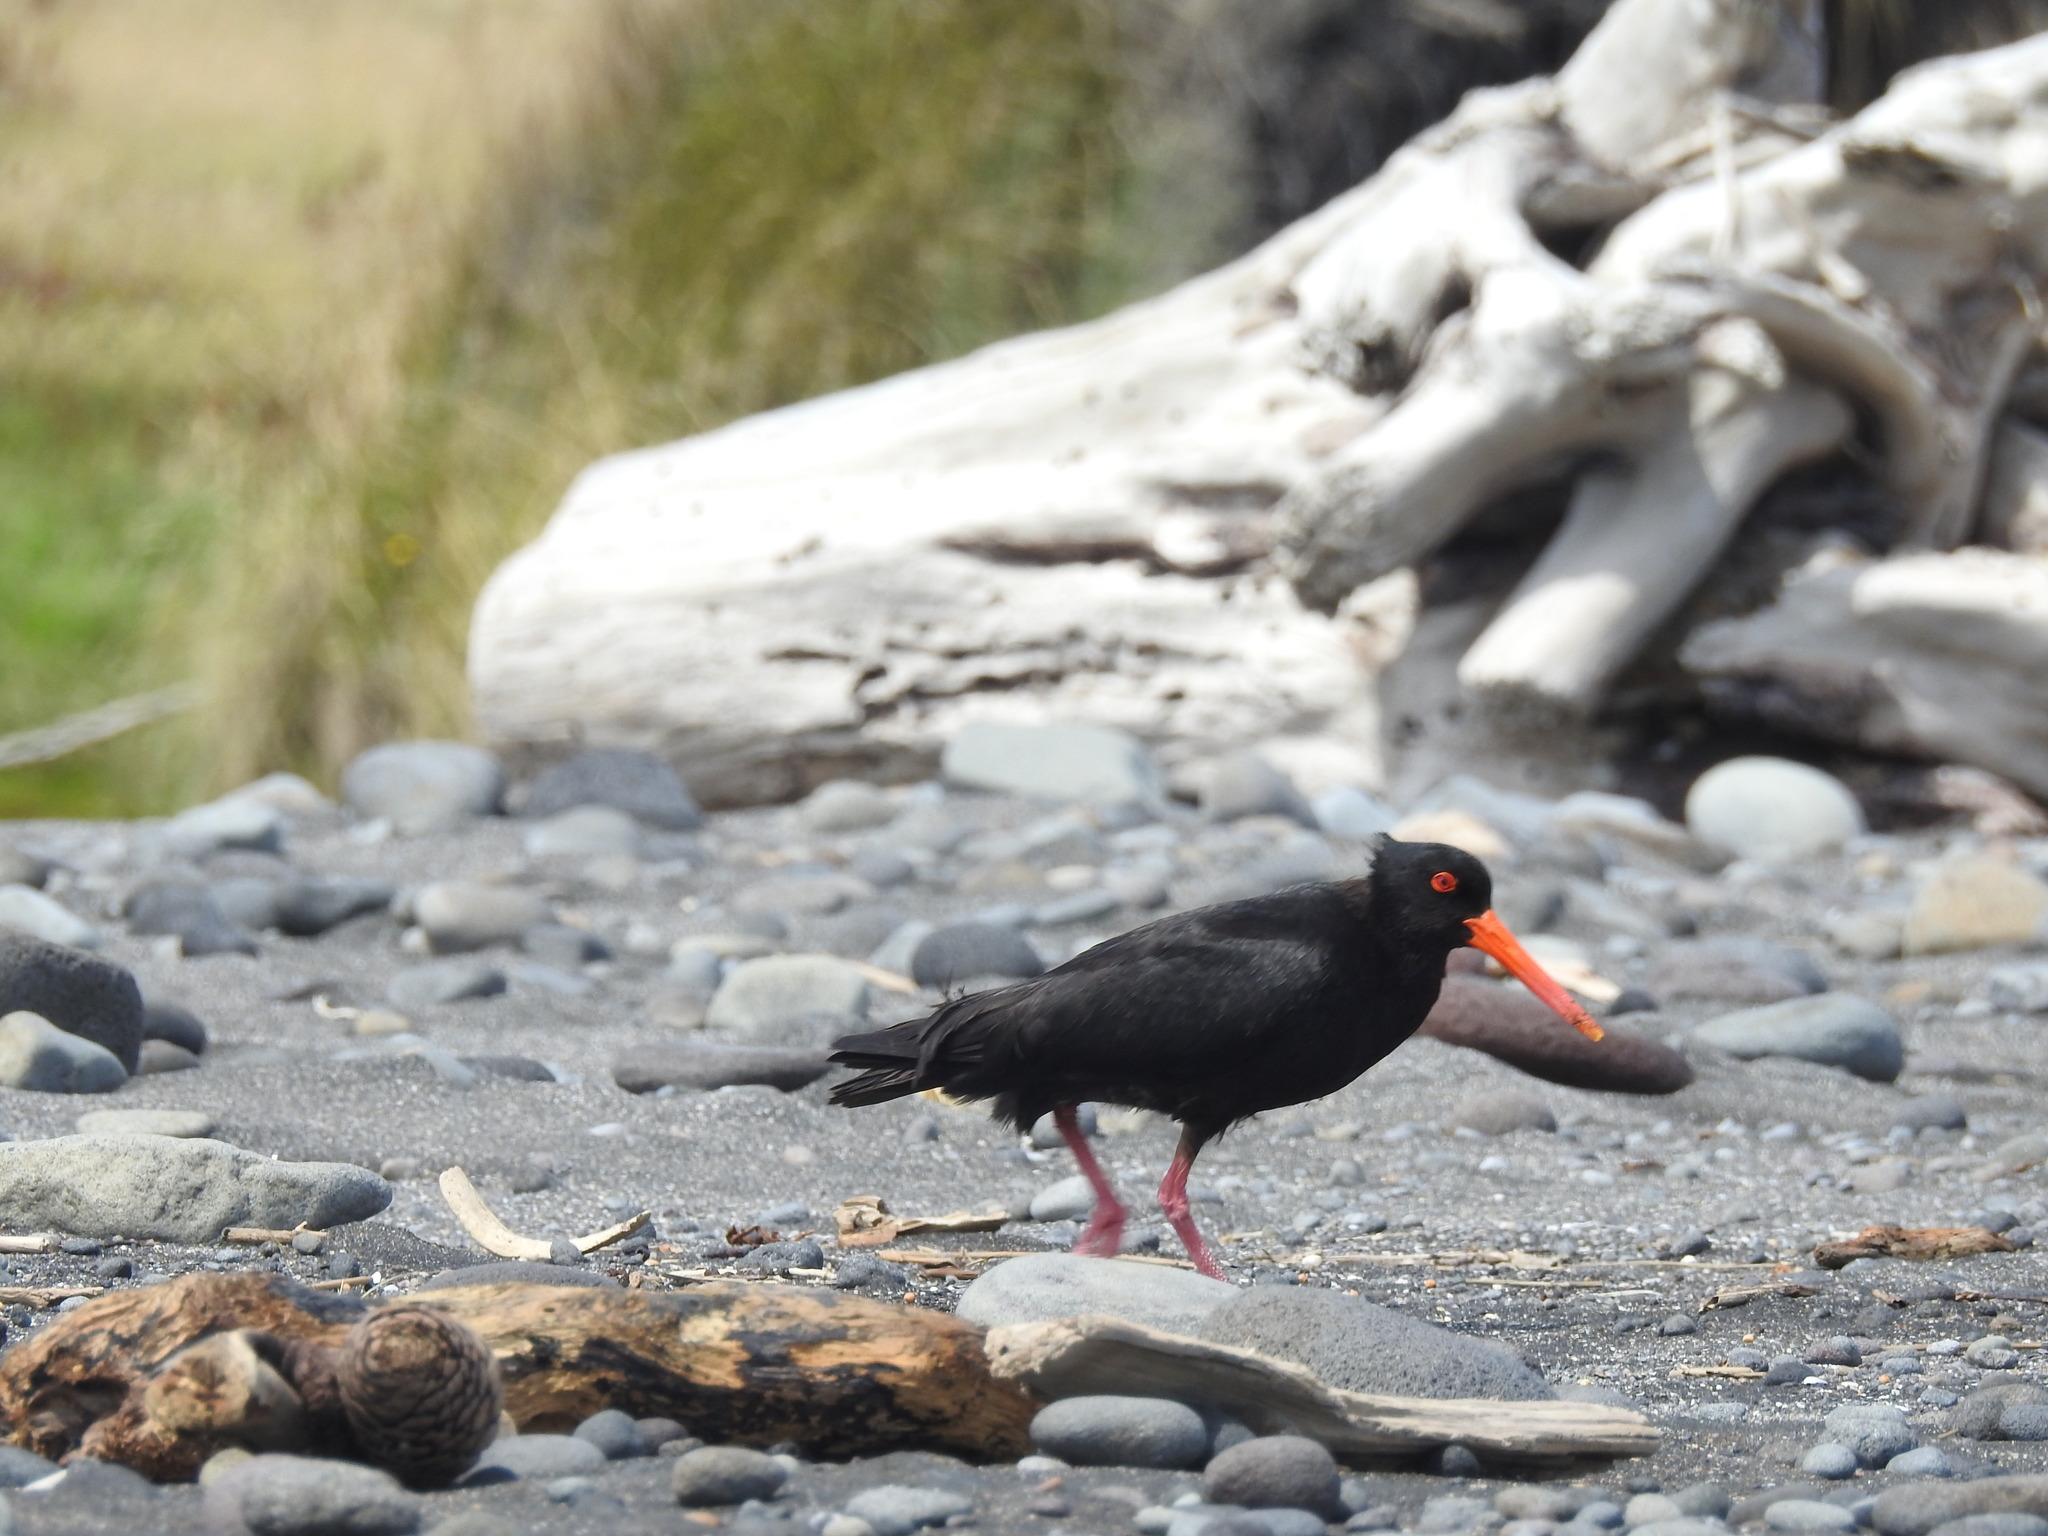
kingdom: Animalia
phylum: Chordata
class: Aves
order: Charadriiformes
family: Haematopodidae
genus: Haematopus
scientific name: Haematopus unicolor
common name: Variable oystercatcher
